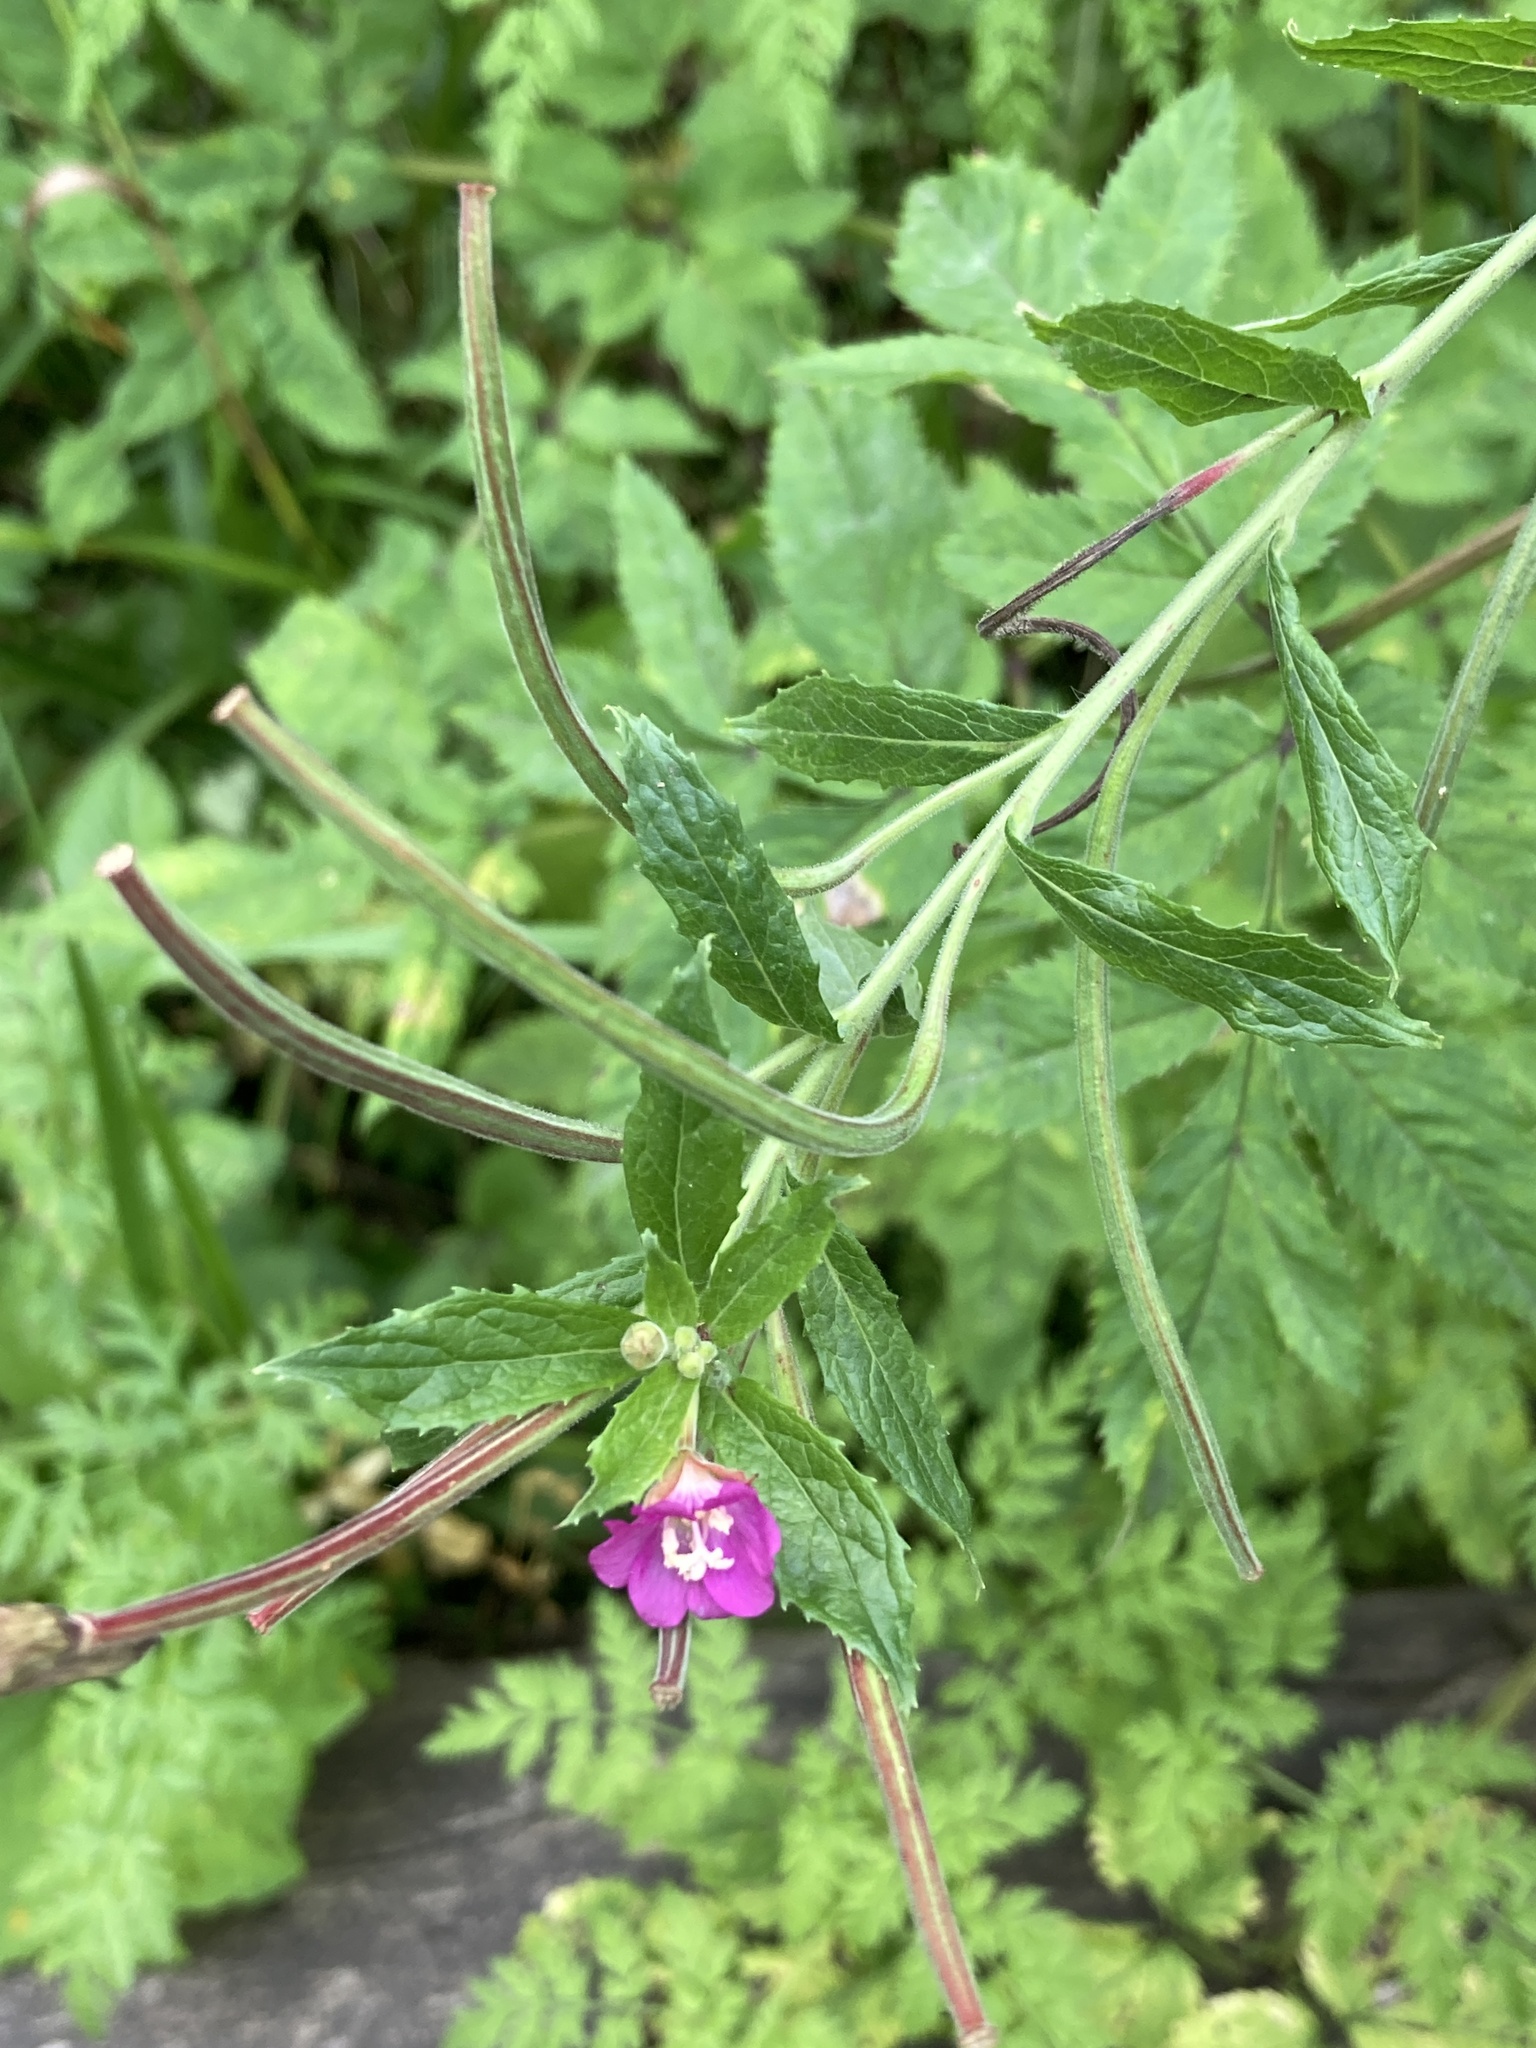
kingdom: Plantae
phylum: Tracheophyta
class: Magnoliopsida
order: Myrtales
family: Onagraceae
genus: Epilobium
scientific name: Epilobium hirsutum
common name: Great willowherb
